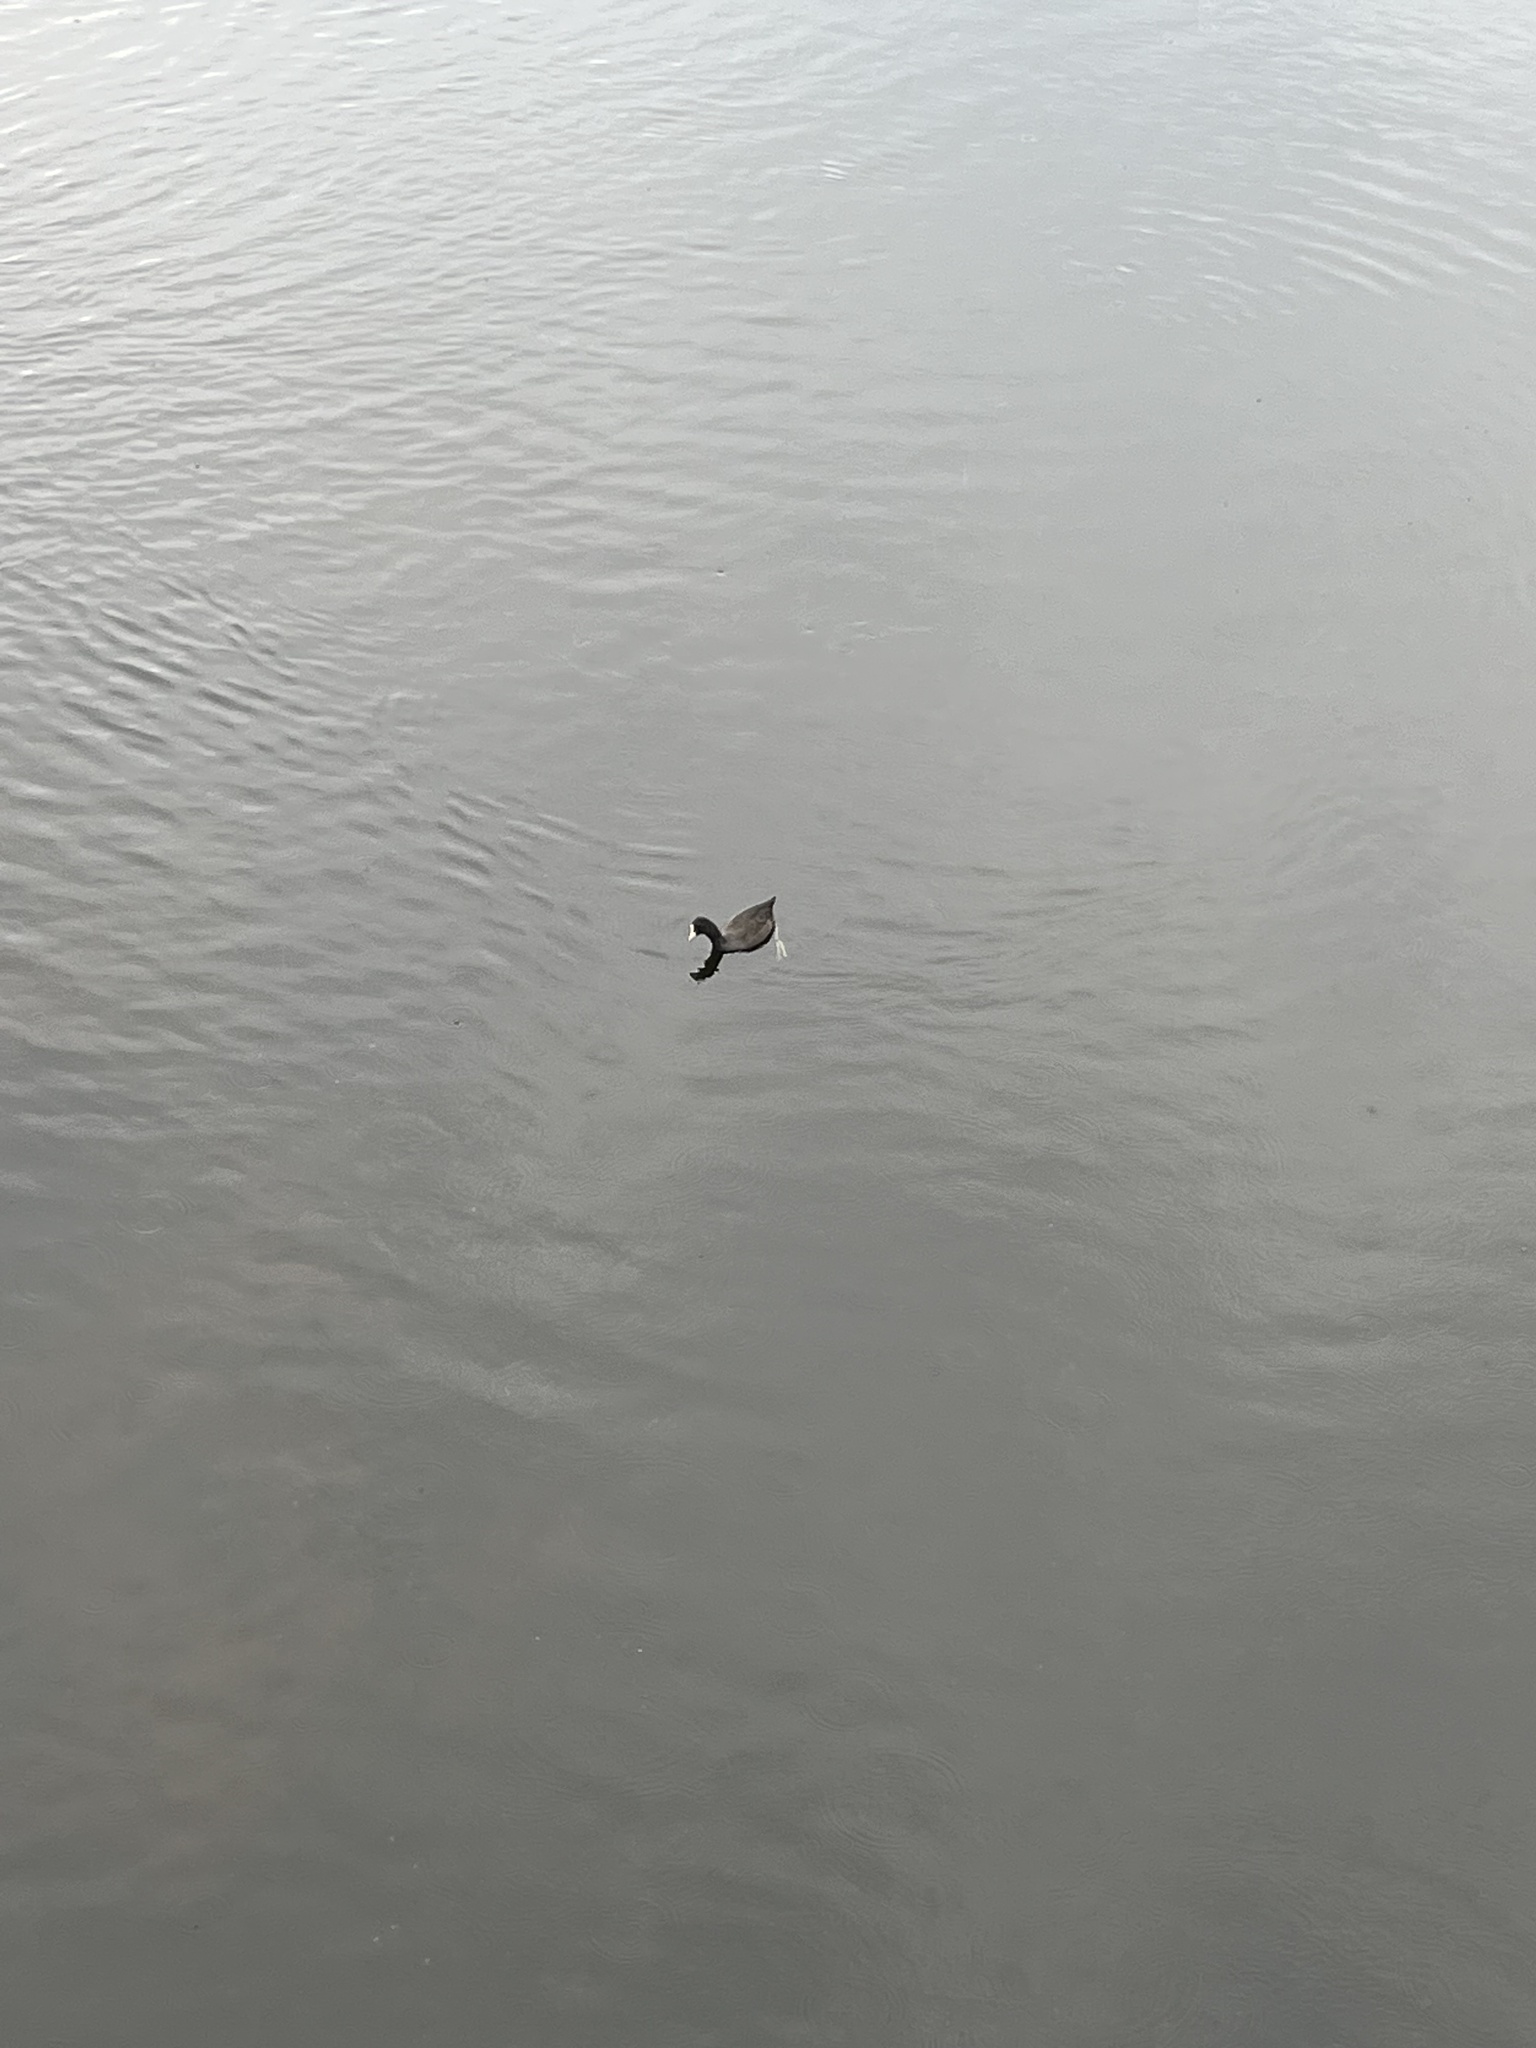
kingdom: Animalia
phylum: Chordata
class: Aves
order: Gruiformes
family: Rallidae
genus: Fulica
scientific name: Fulica atra
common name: Eurasian coot
